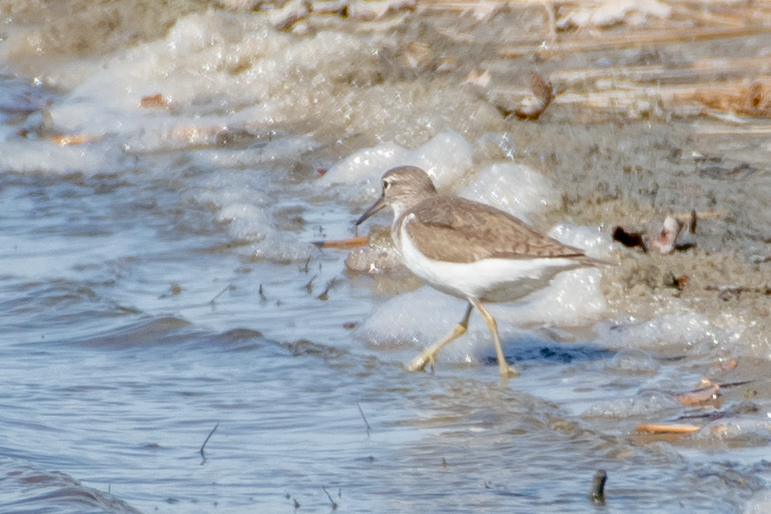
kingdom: Animalia
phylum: Chordata
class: Aves
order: Charadriiformes
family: Scolopacidae
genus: Actitis
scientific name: Actitis hypoleucos
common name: Common sandpiper
